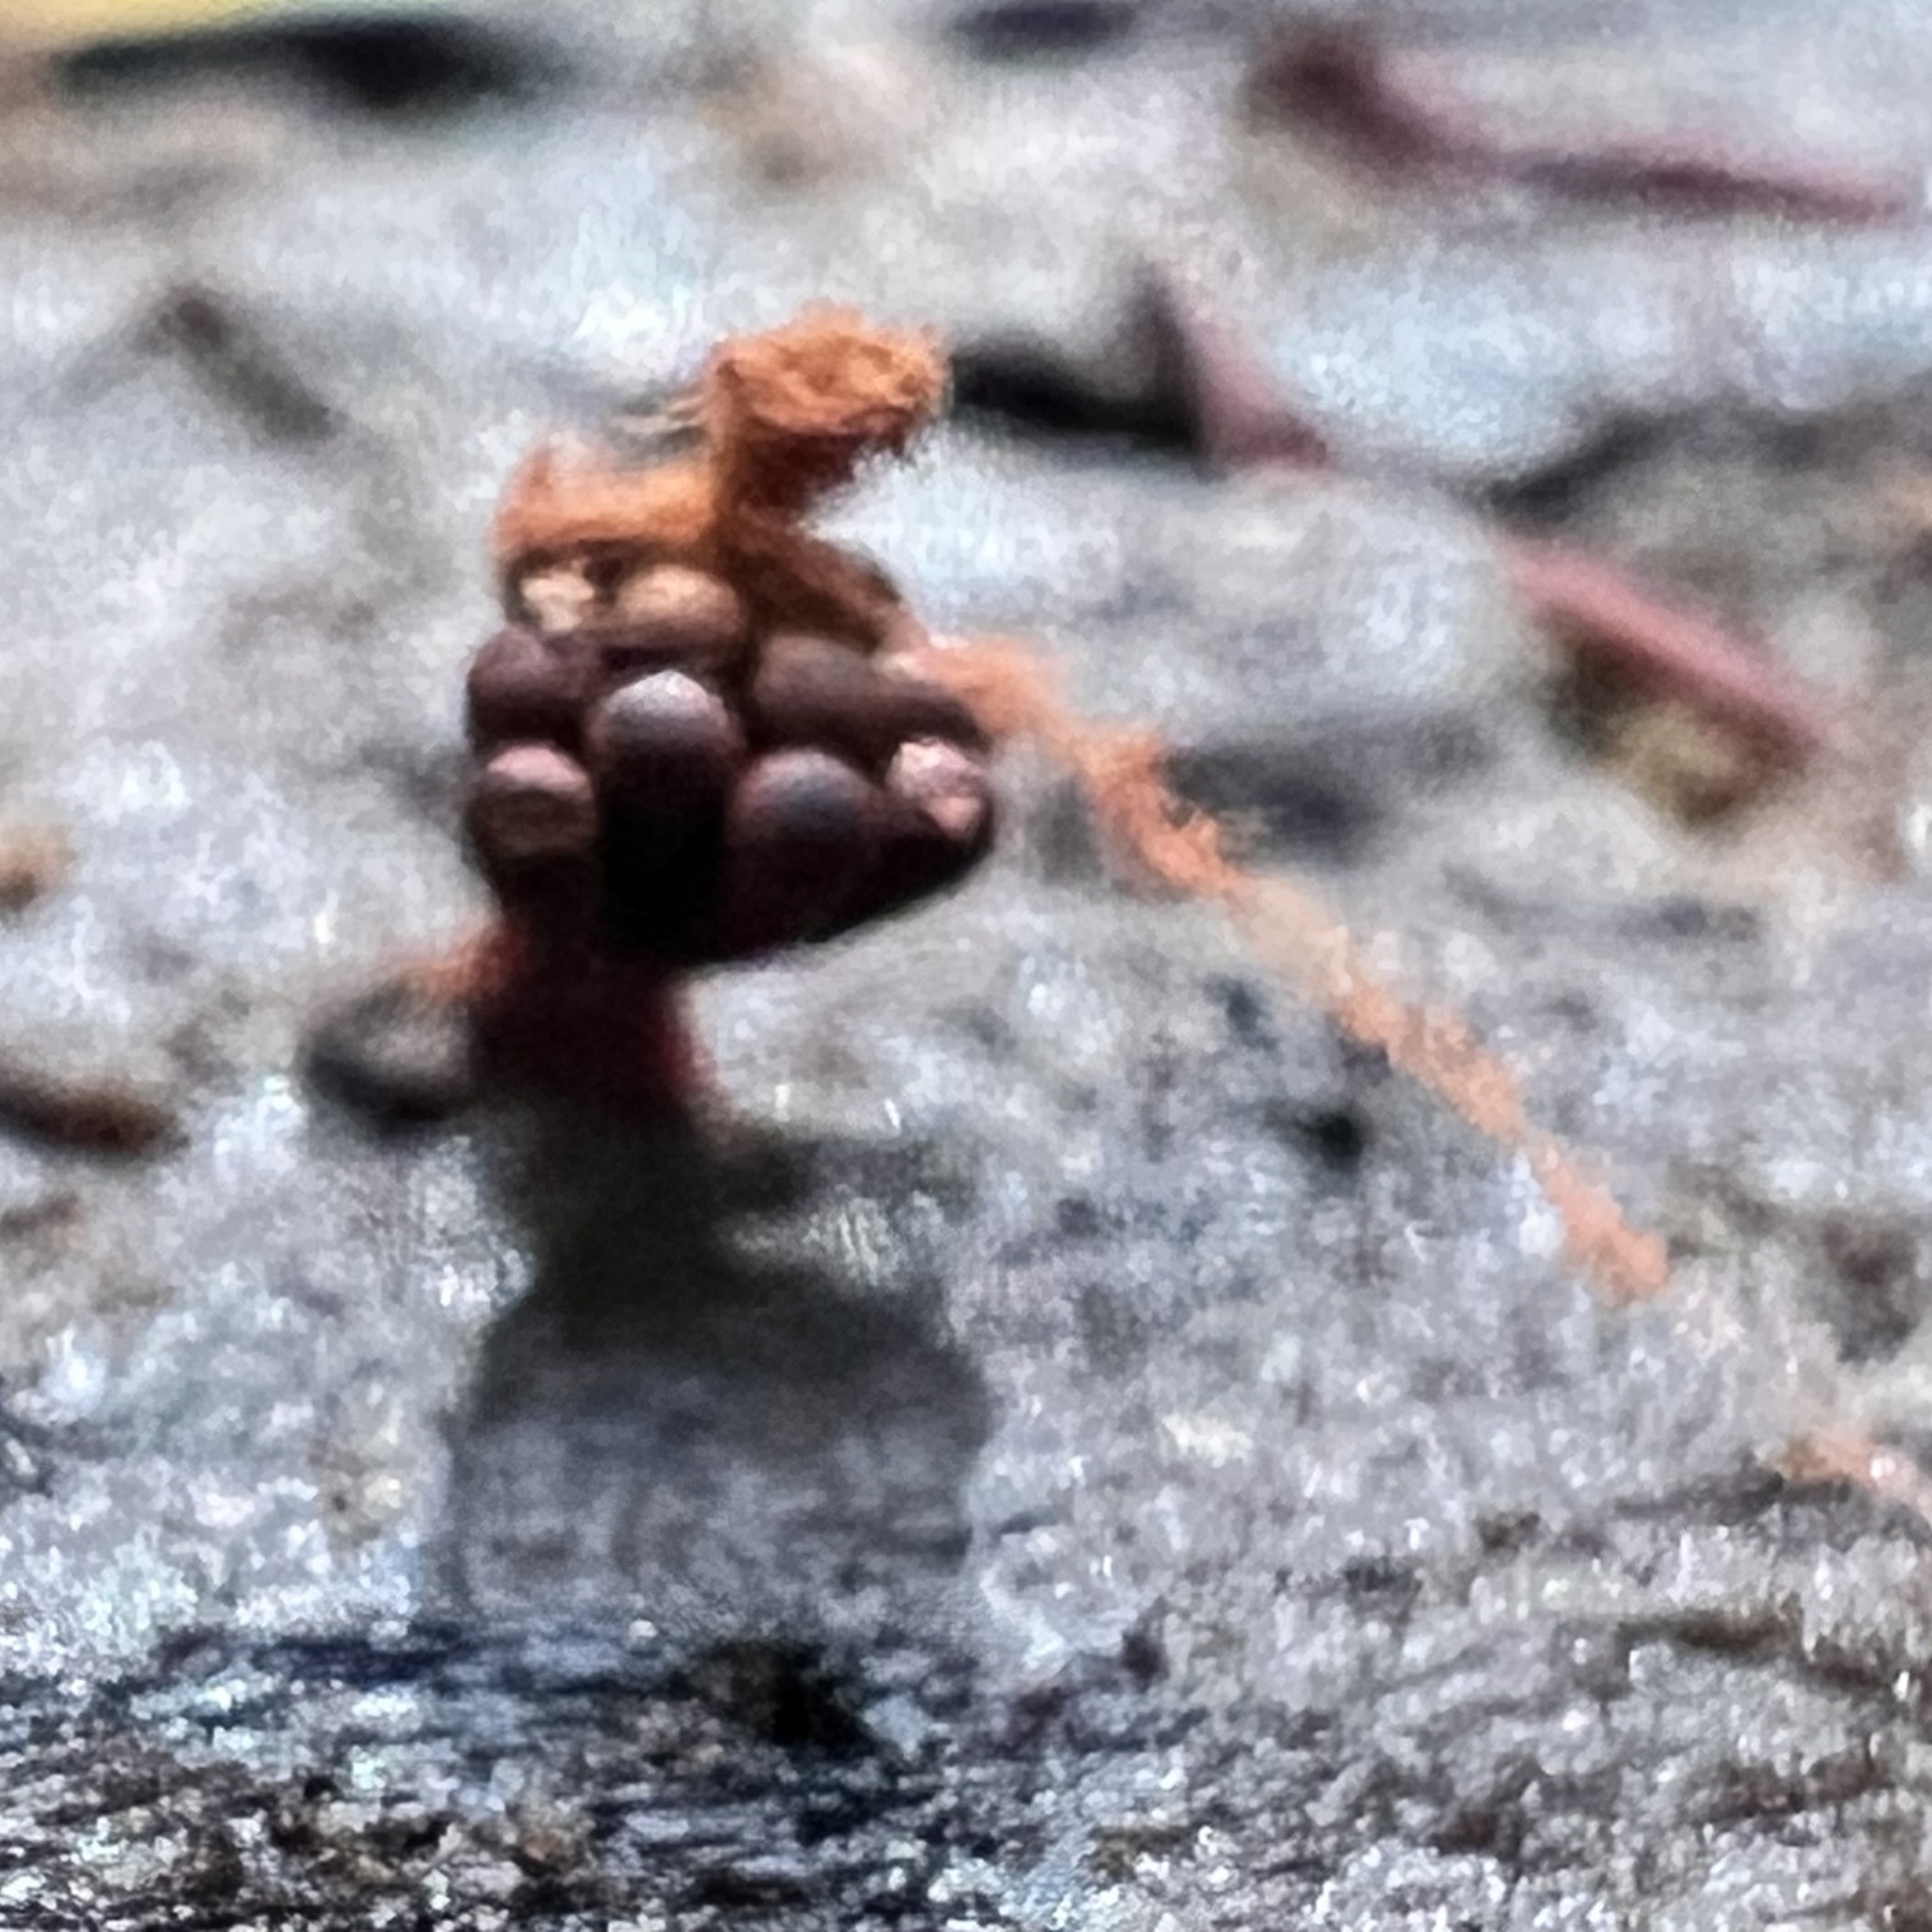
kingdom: Protozoa
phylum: Mycetozoa
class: Myxomycetes
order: Trichiales
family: Trichiaceae
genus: Metatrichia
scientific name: Metatrichia vesparia
